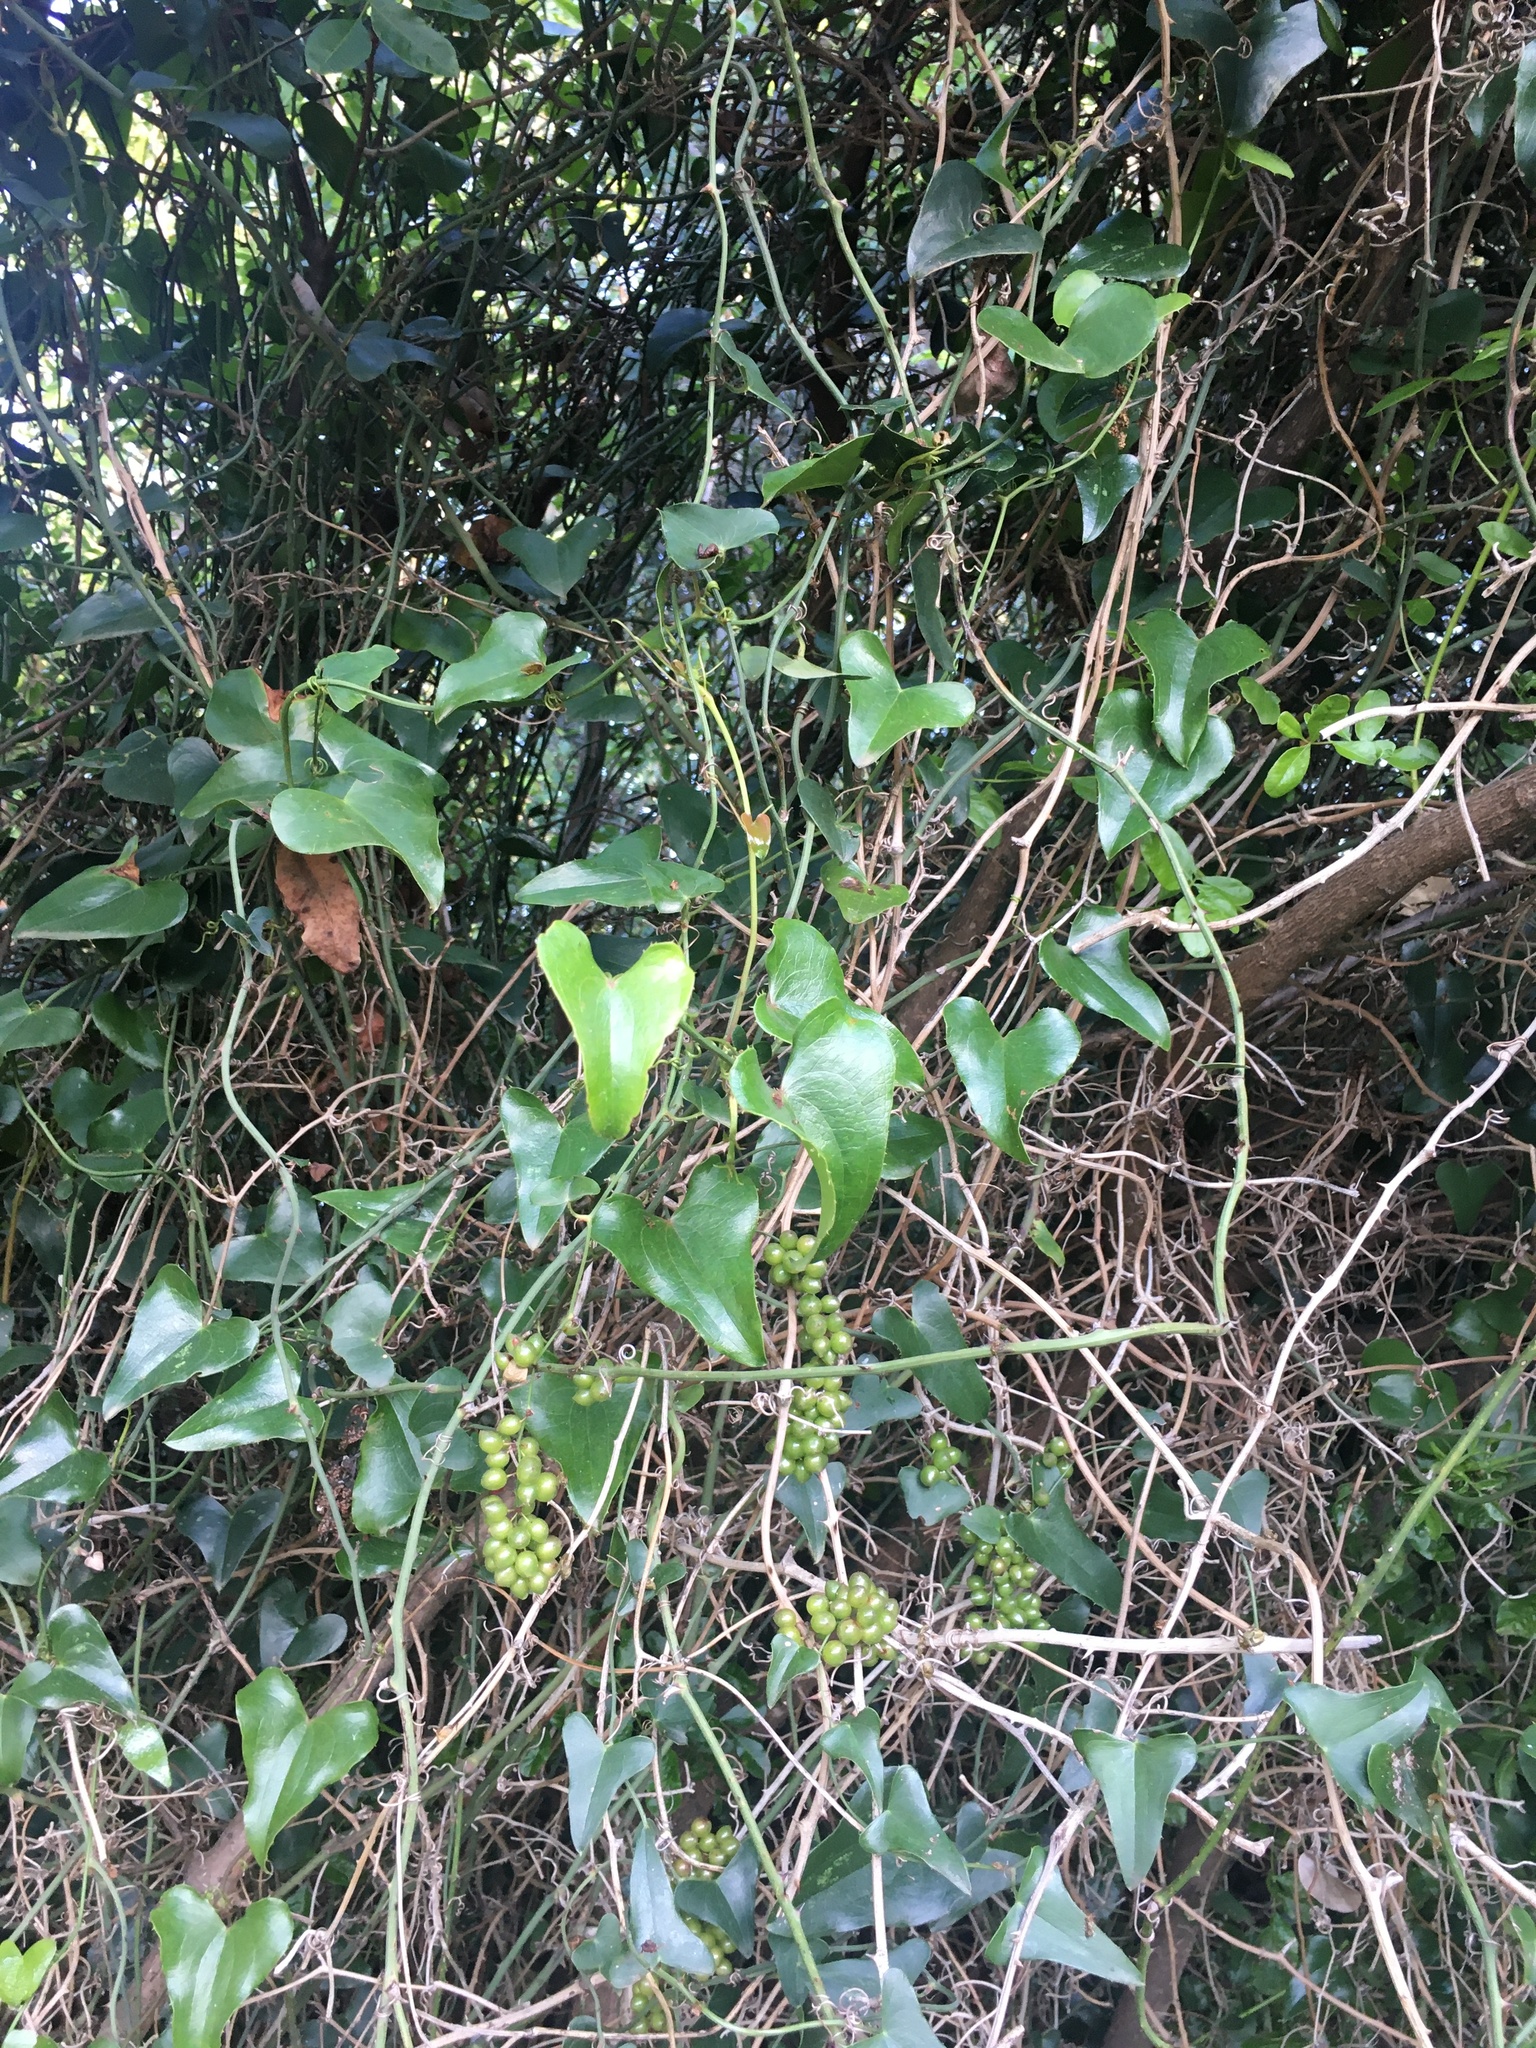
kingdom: Plantae
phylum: Tracheophyta
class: Liliopsida
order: Liliales
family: Smilacaceae
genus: Smilax
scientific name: Smilax aspera
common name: Common smilax
